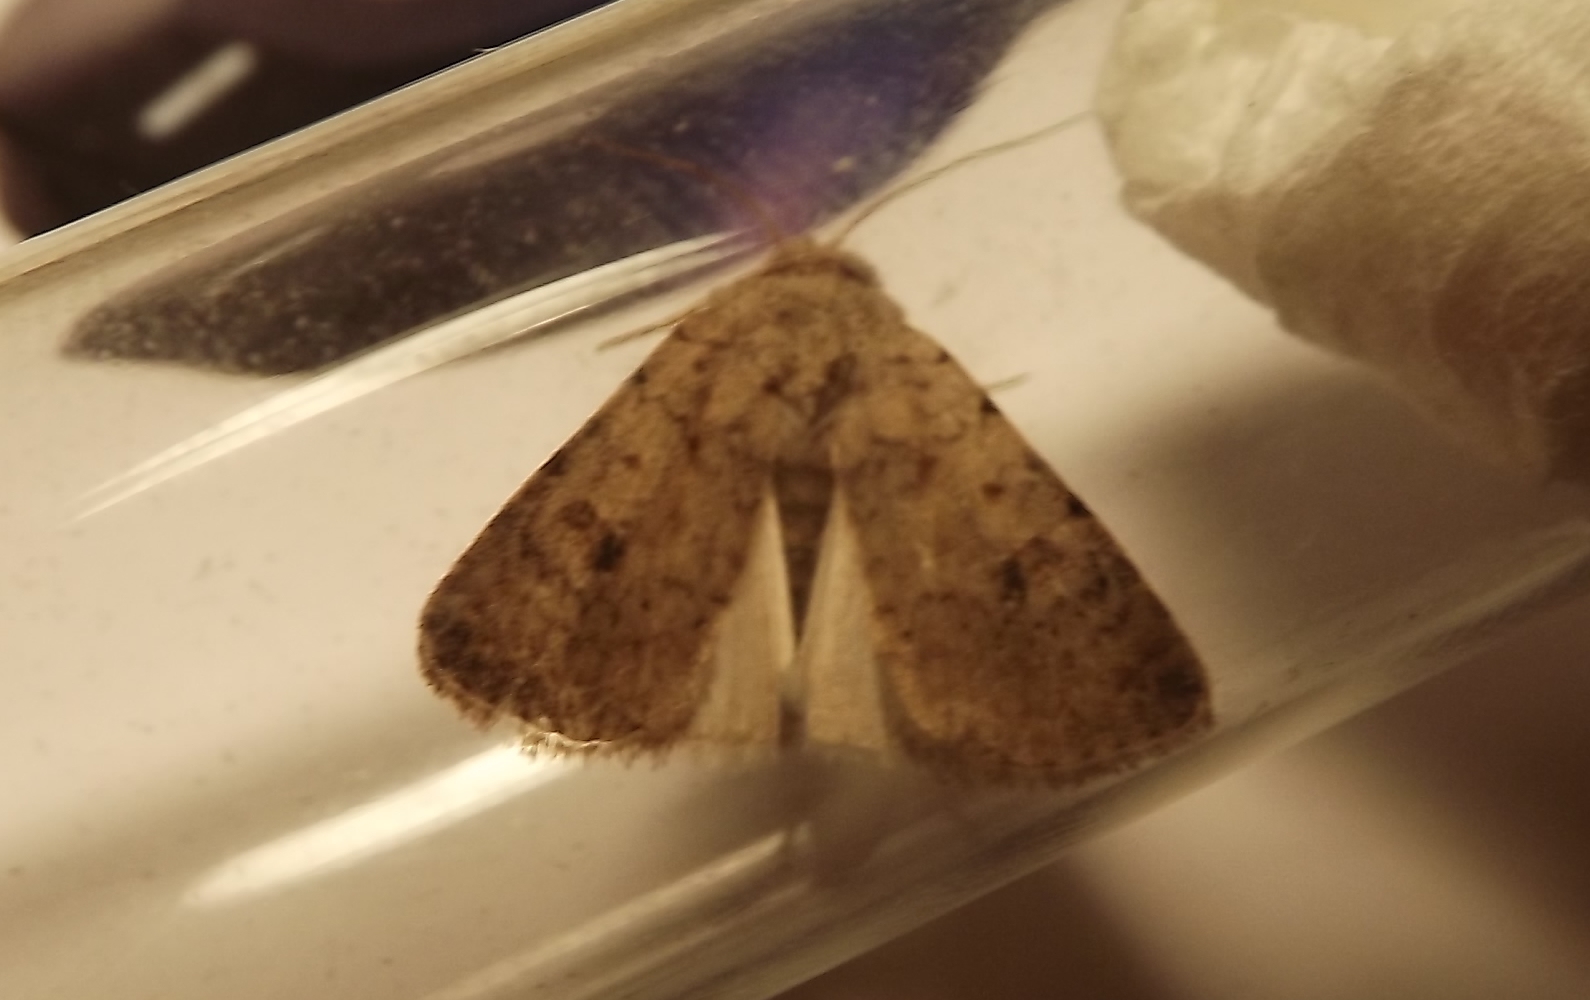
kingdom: Animalia
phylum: Arthropoda
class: Insecta
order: Lepidoptera
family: Noctuidae
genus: Caradrina
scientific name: Caradrina
